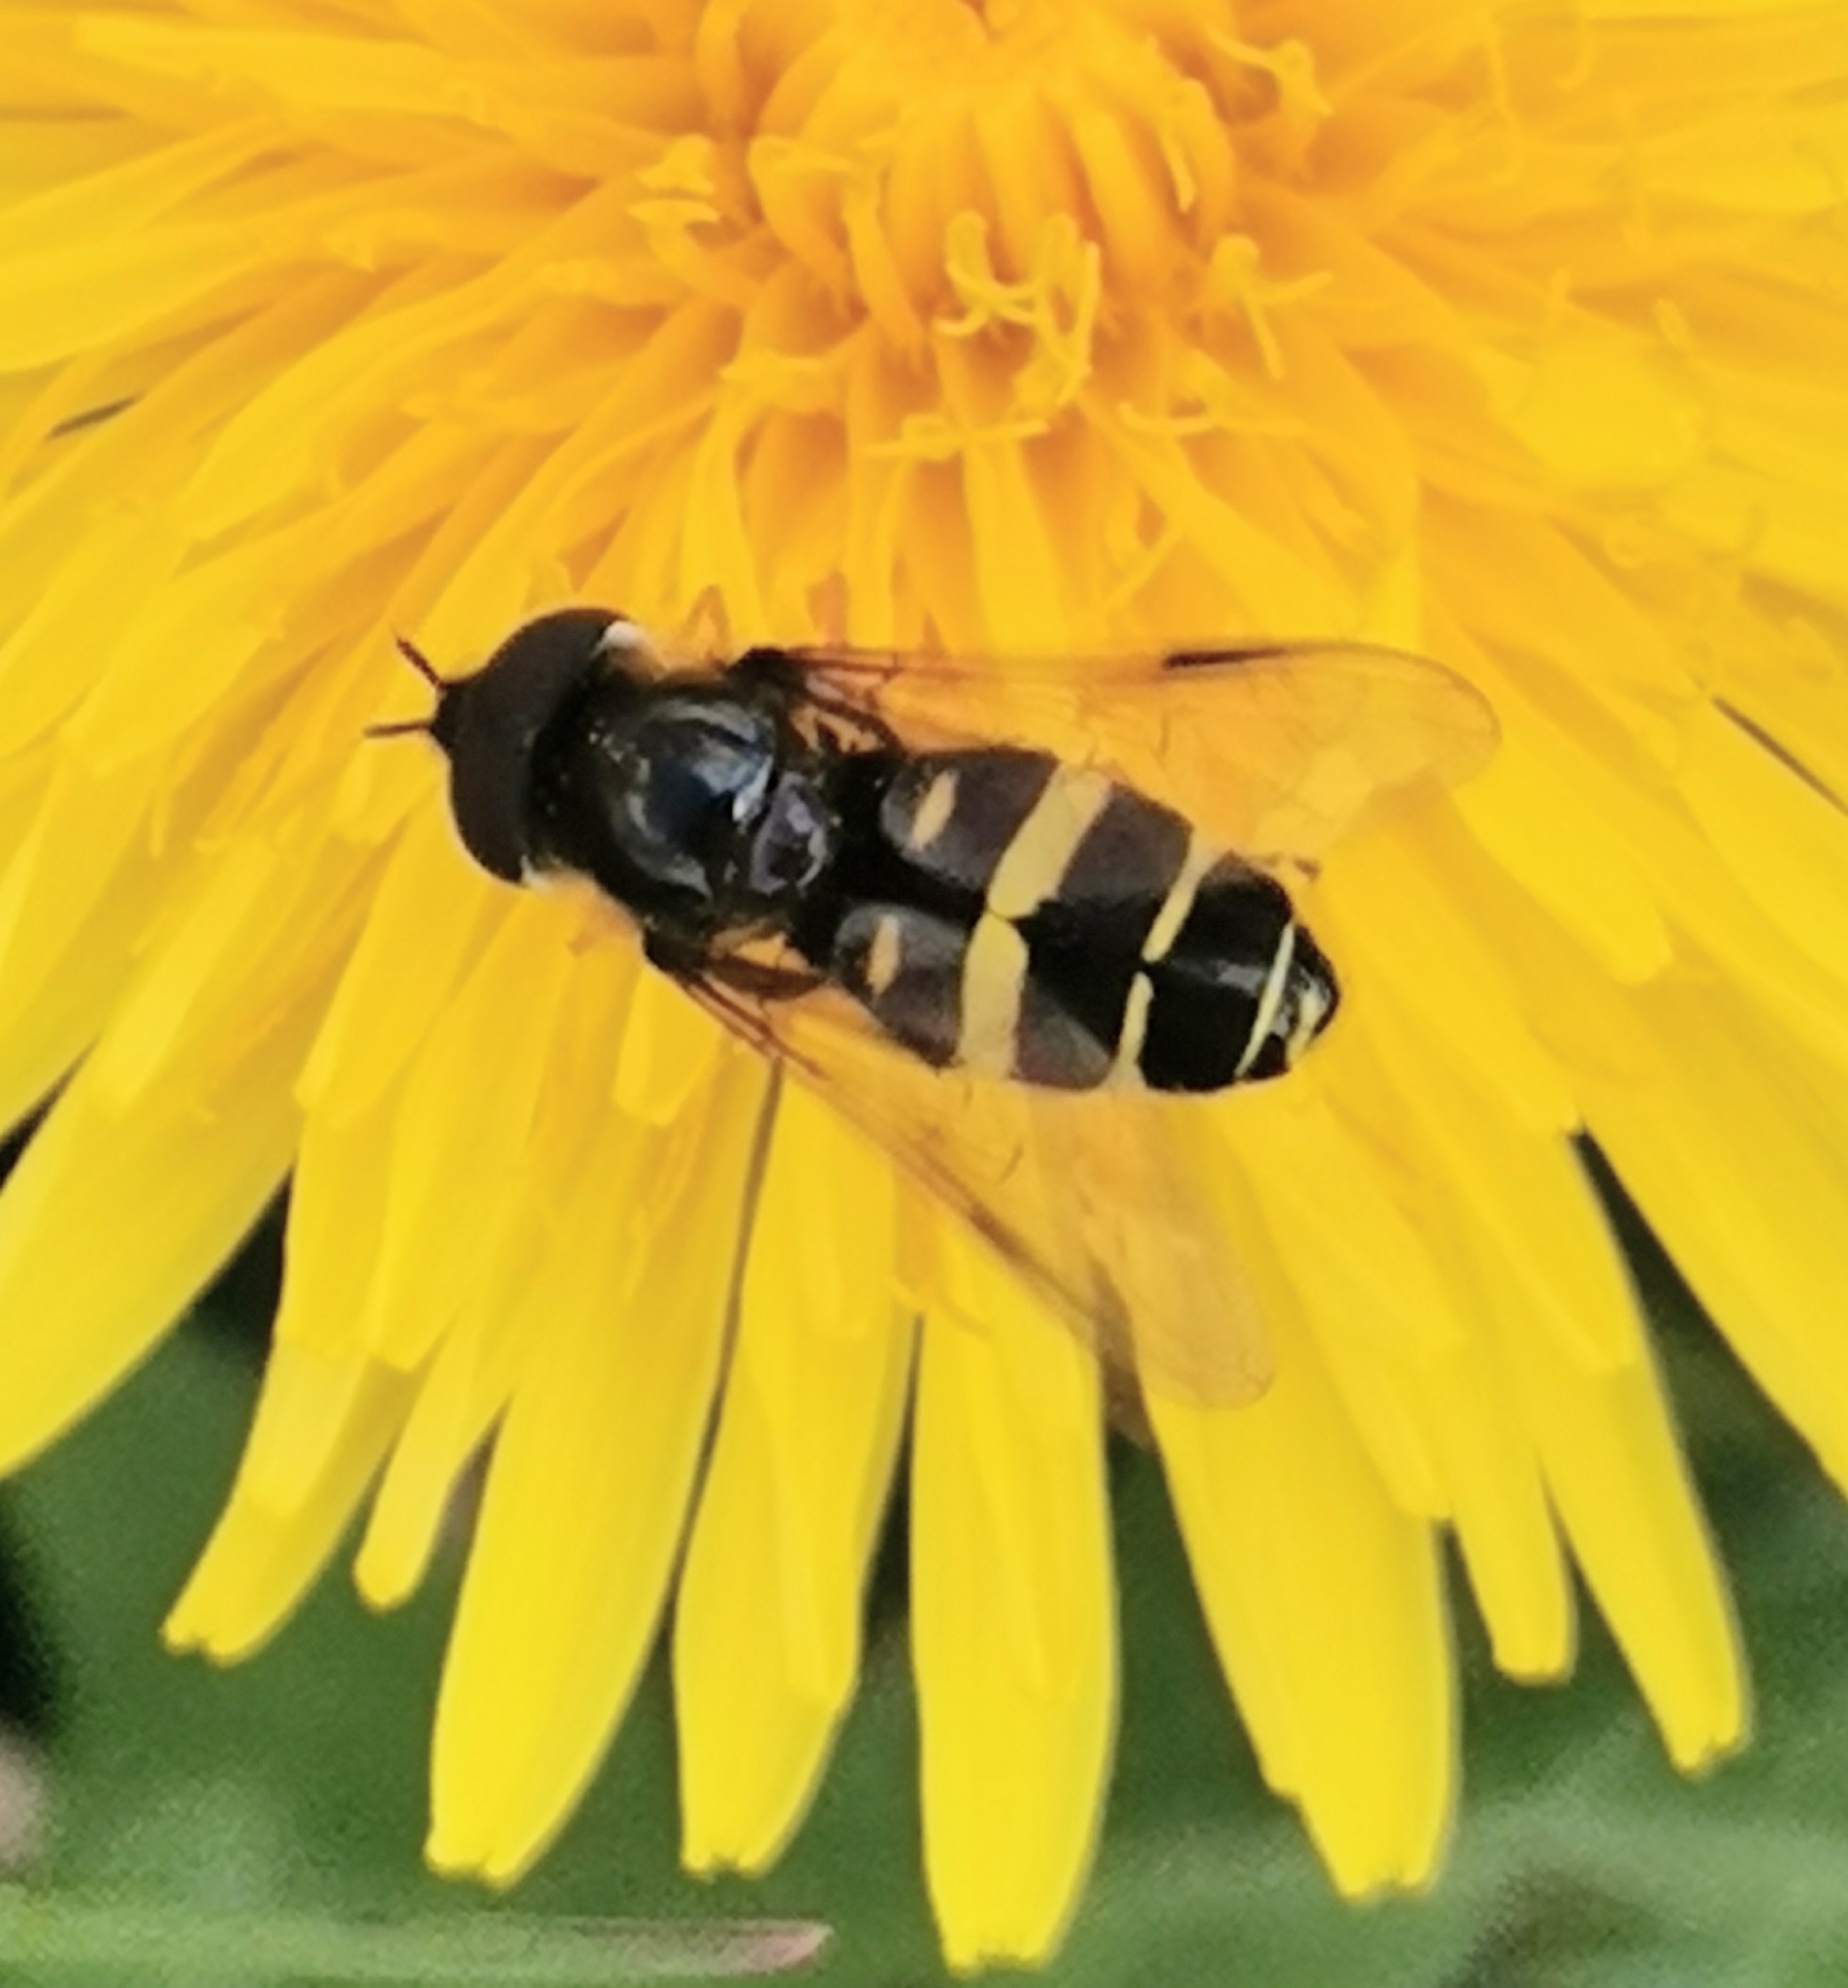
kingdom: Animalia
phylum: Arthropoda
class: Insecta
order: Diptera
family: Syrphidae
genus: Dasysyrphus
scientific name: Dasysyrphus tricinctus
